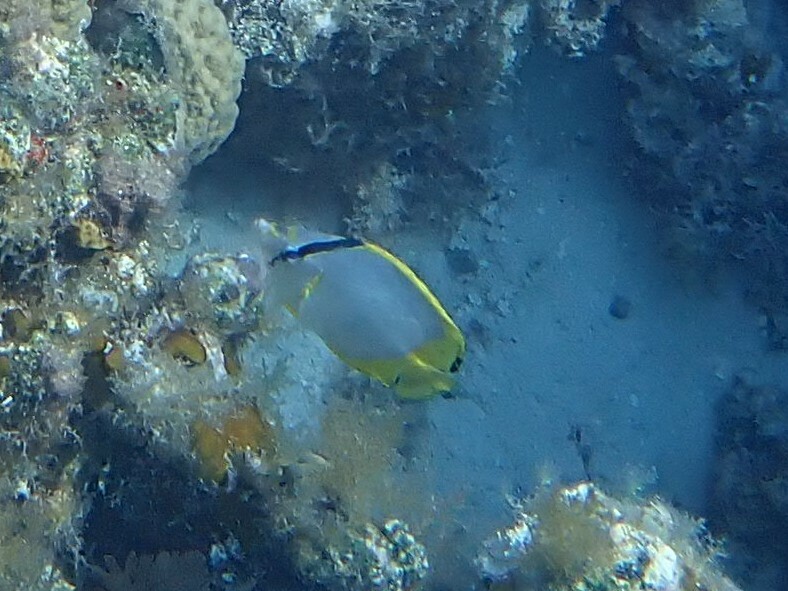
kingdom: Animalia
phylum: Chordata
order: Perciformes
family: Chaetodontidae
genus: Chaetodon
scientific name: Chaetodon ocellatus
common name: Spotfin butterflyfish
